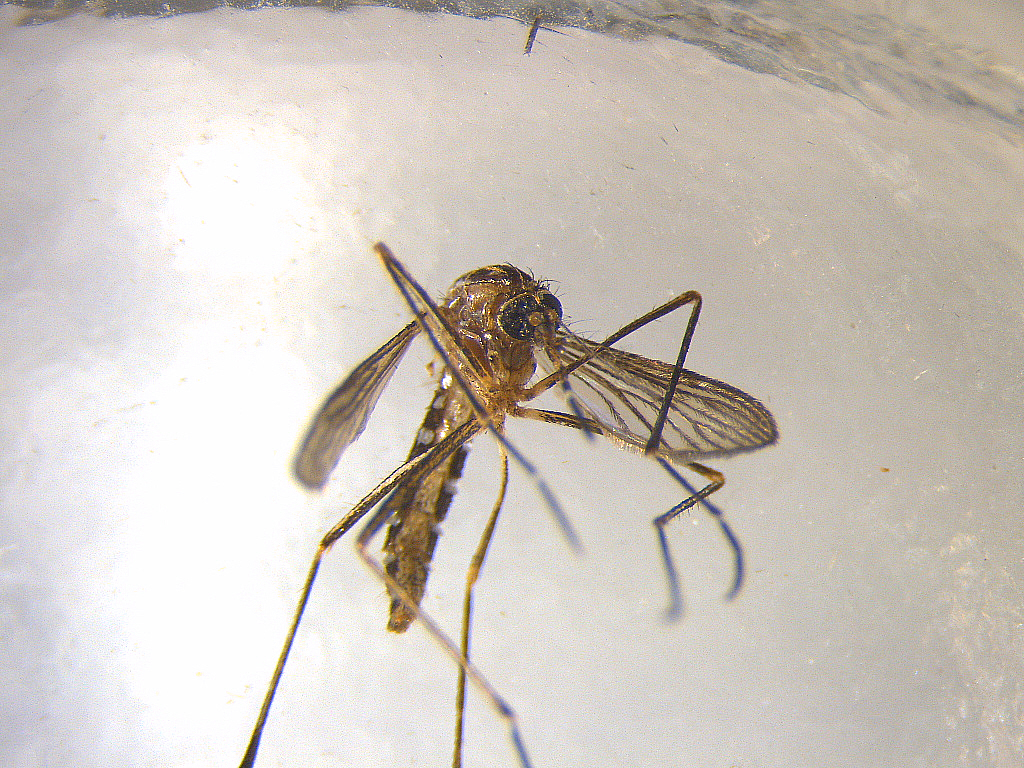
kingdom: Animalia
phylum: Arthropoda
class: Insecta
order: Diptera
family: Culicidae
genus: Aedes
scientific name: Aedes notoscriptus
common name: Australian backyard mosquito
